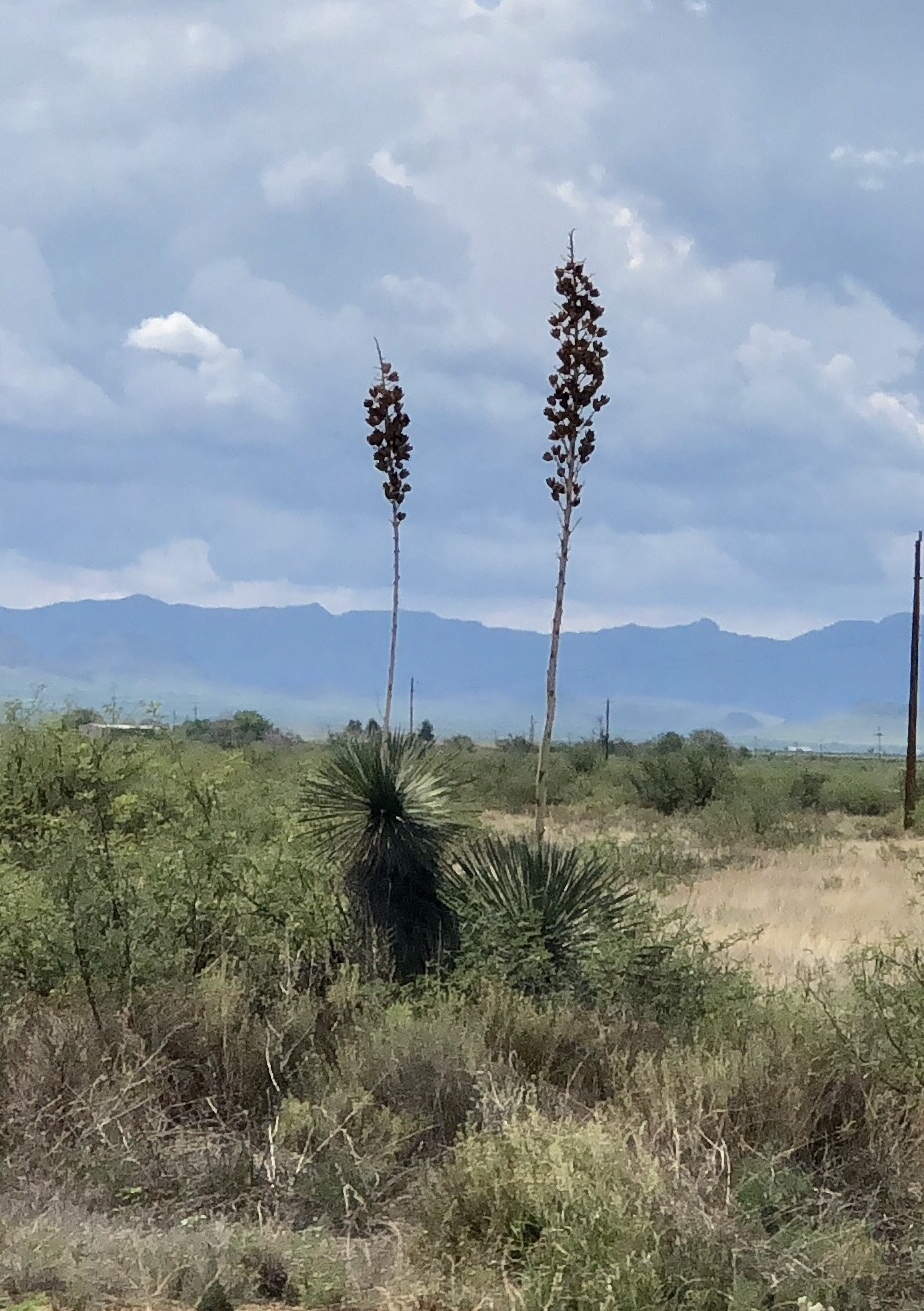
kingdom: Plantae
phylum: Tracheophyta
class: Liliopsida
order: Asparagales
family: Asparagaceae
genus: Yucca
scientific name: Yucca elata
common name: Palmella
